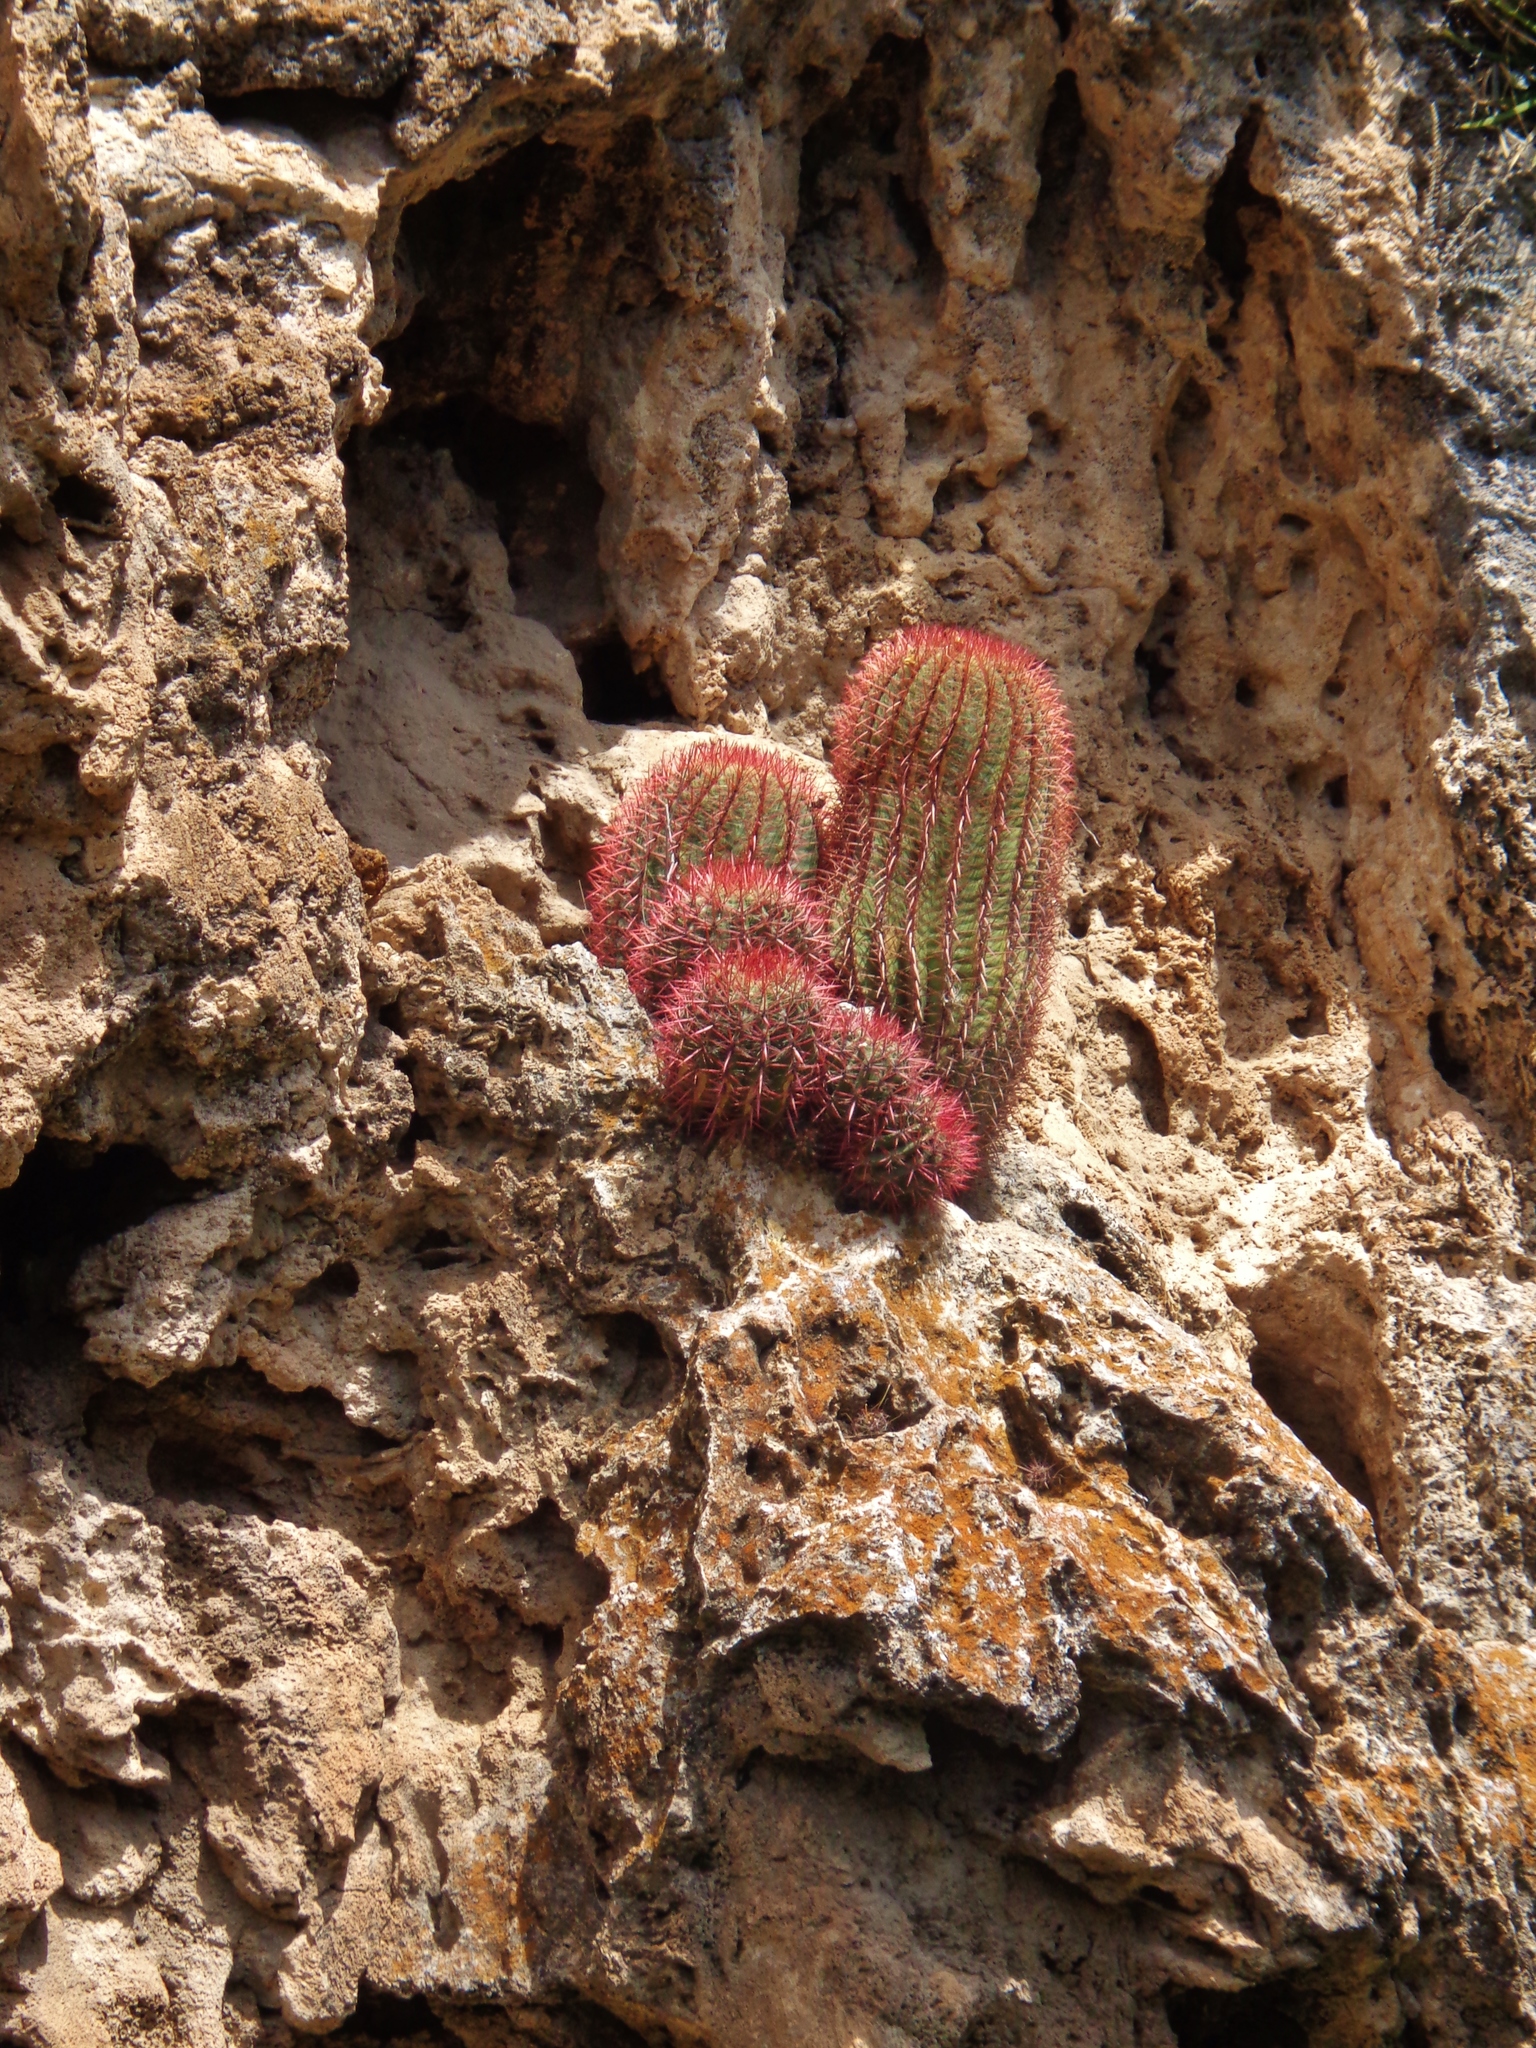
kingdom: Plantae
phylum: Tracheophyta
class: Magnoliopsida
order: Caryophyllales
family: Cactaceae
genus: Ferocactus
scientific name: Ferocactus pilosus
